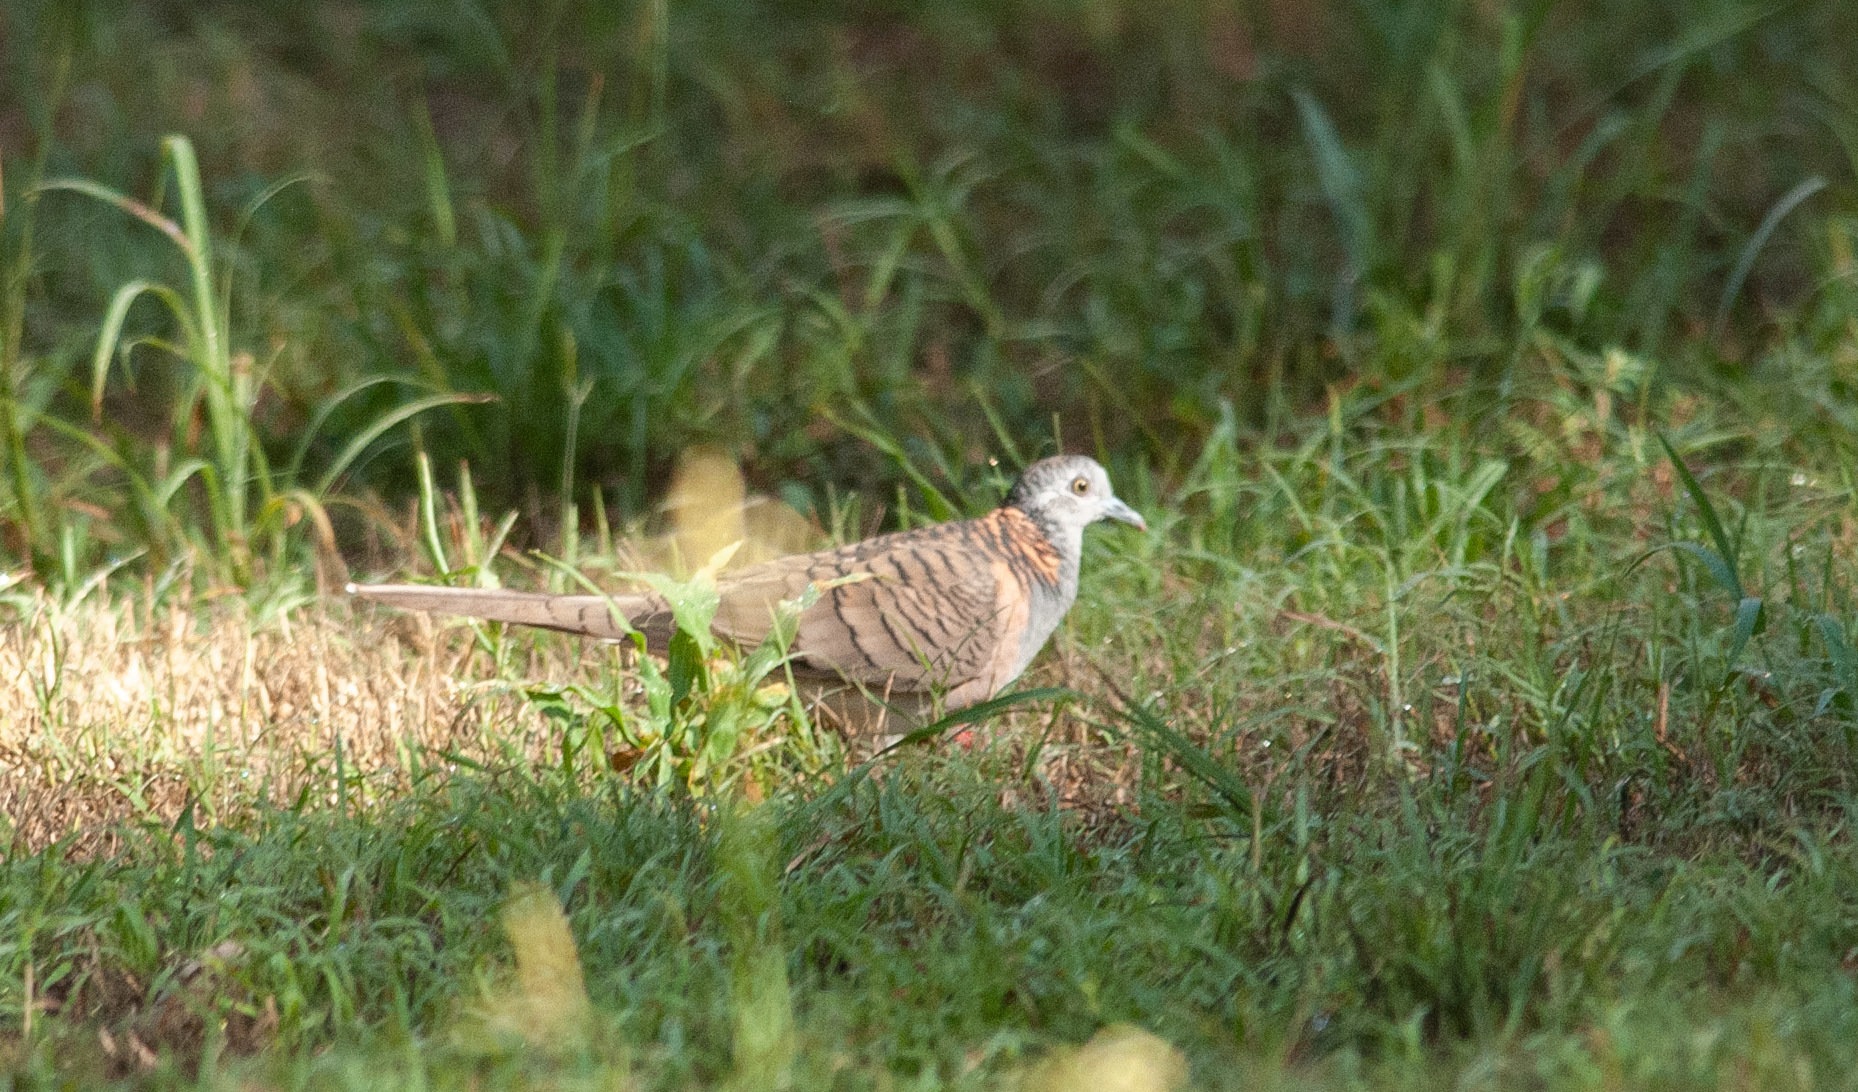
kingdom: Animalia
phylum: Chordata
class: Aves
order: Columbiformes
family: Columbidae
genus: Geopelia
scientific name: Geopelia humeralis
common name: Bar-shouldered dove
